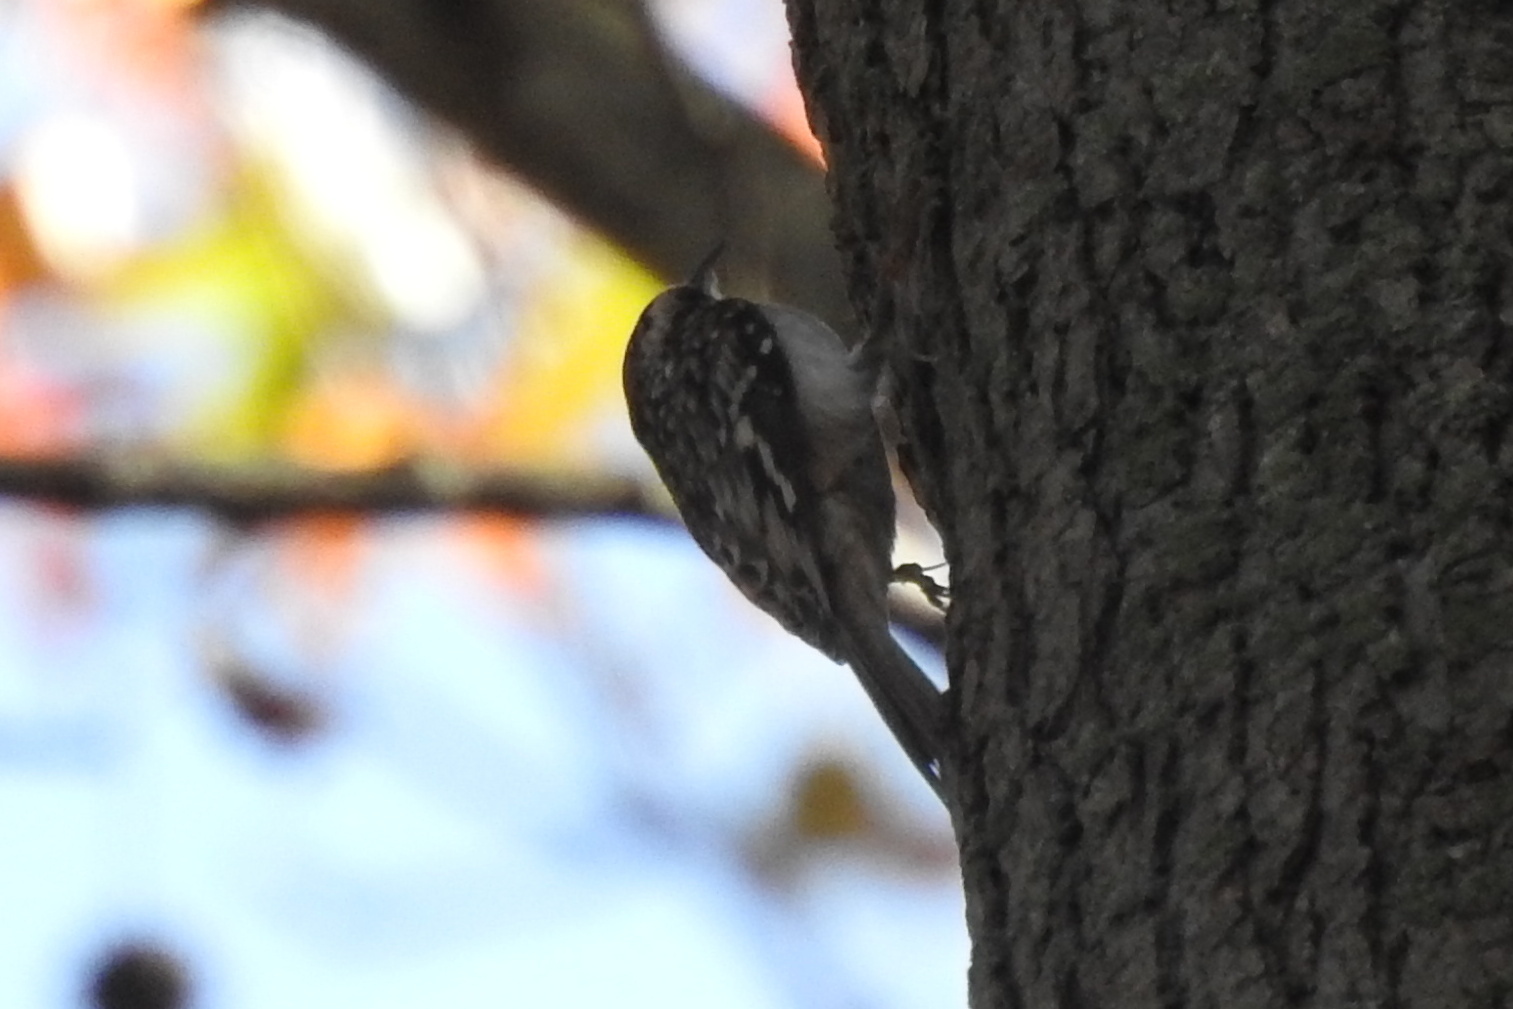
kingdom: Animalia
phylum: Chordata
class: Aves
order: Passeriformes
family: Certhiidae
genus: Certhia
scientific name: Certhia americana
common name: Brown creeper
